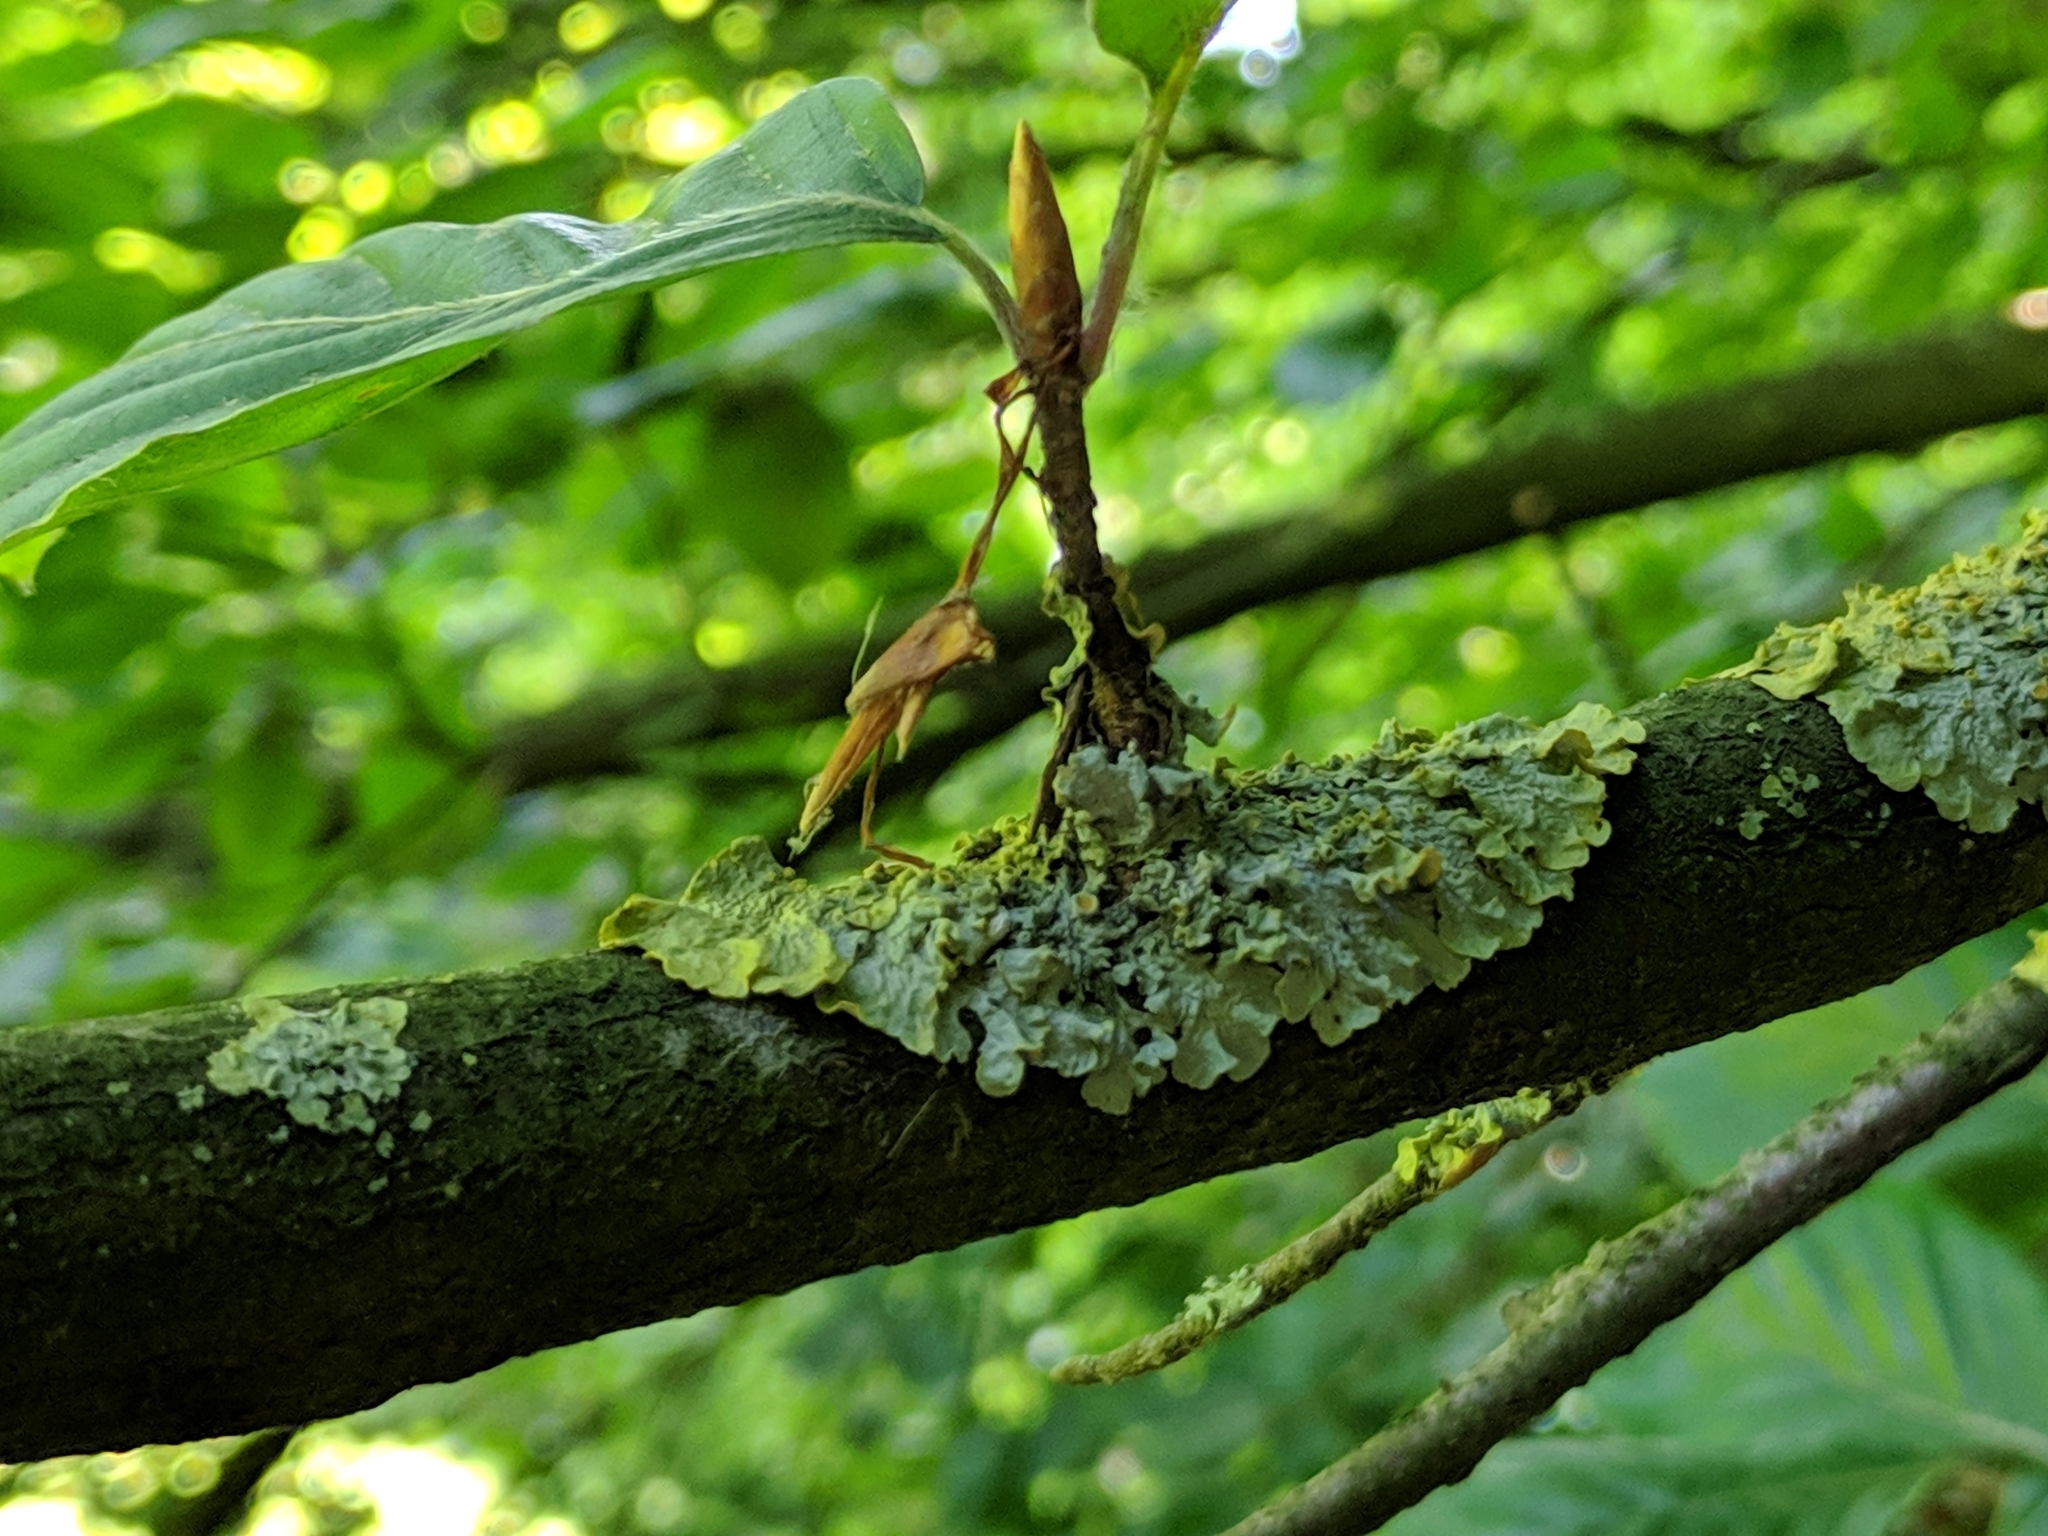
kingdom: Fungi
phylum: Ascomycota
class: Lecanoromycetes
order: Teloschistales
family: Teloschistaceae
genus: Xanthoria
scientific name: Xanthoria parietina
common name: Common orange lichen
